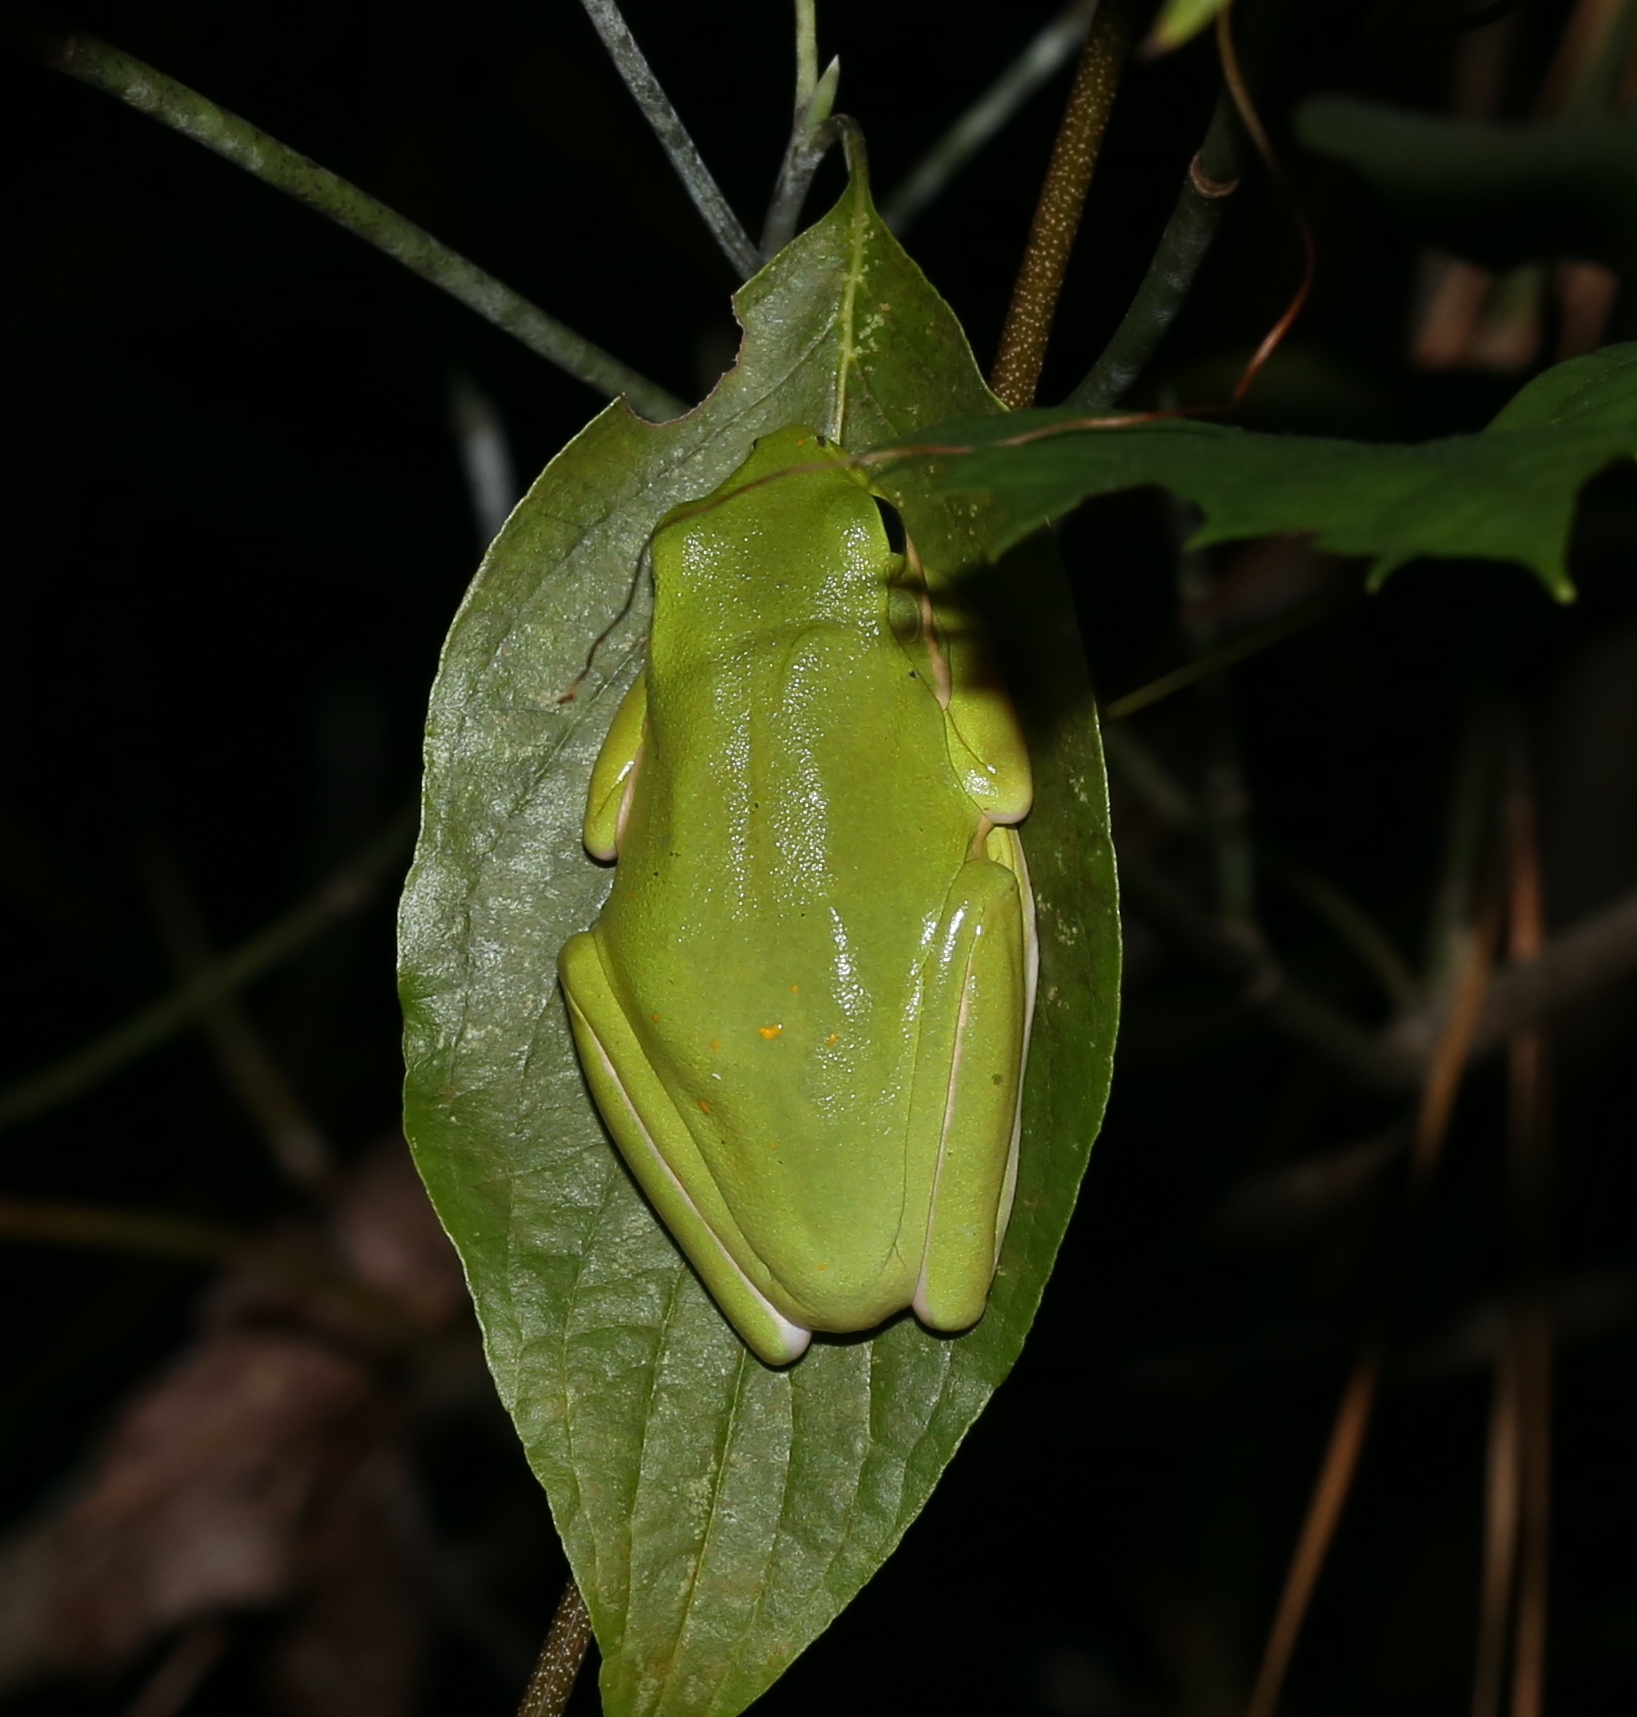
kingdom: Animalia
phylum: Chordata
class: Amphibia
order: Anura
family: Hylidae
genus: Dryophytes
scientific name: Dryophytes cinereus
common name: Green treefrog
